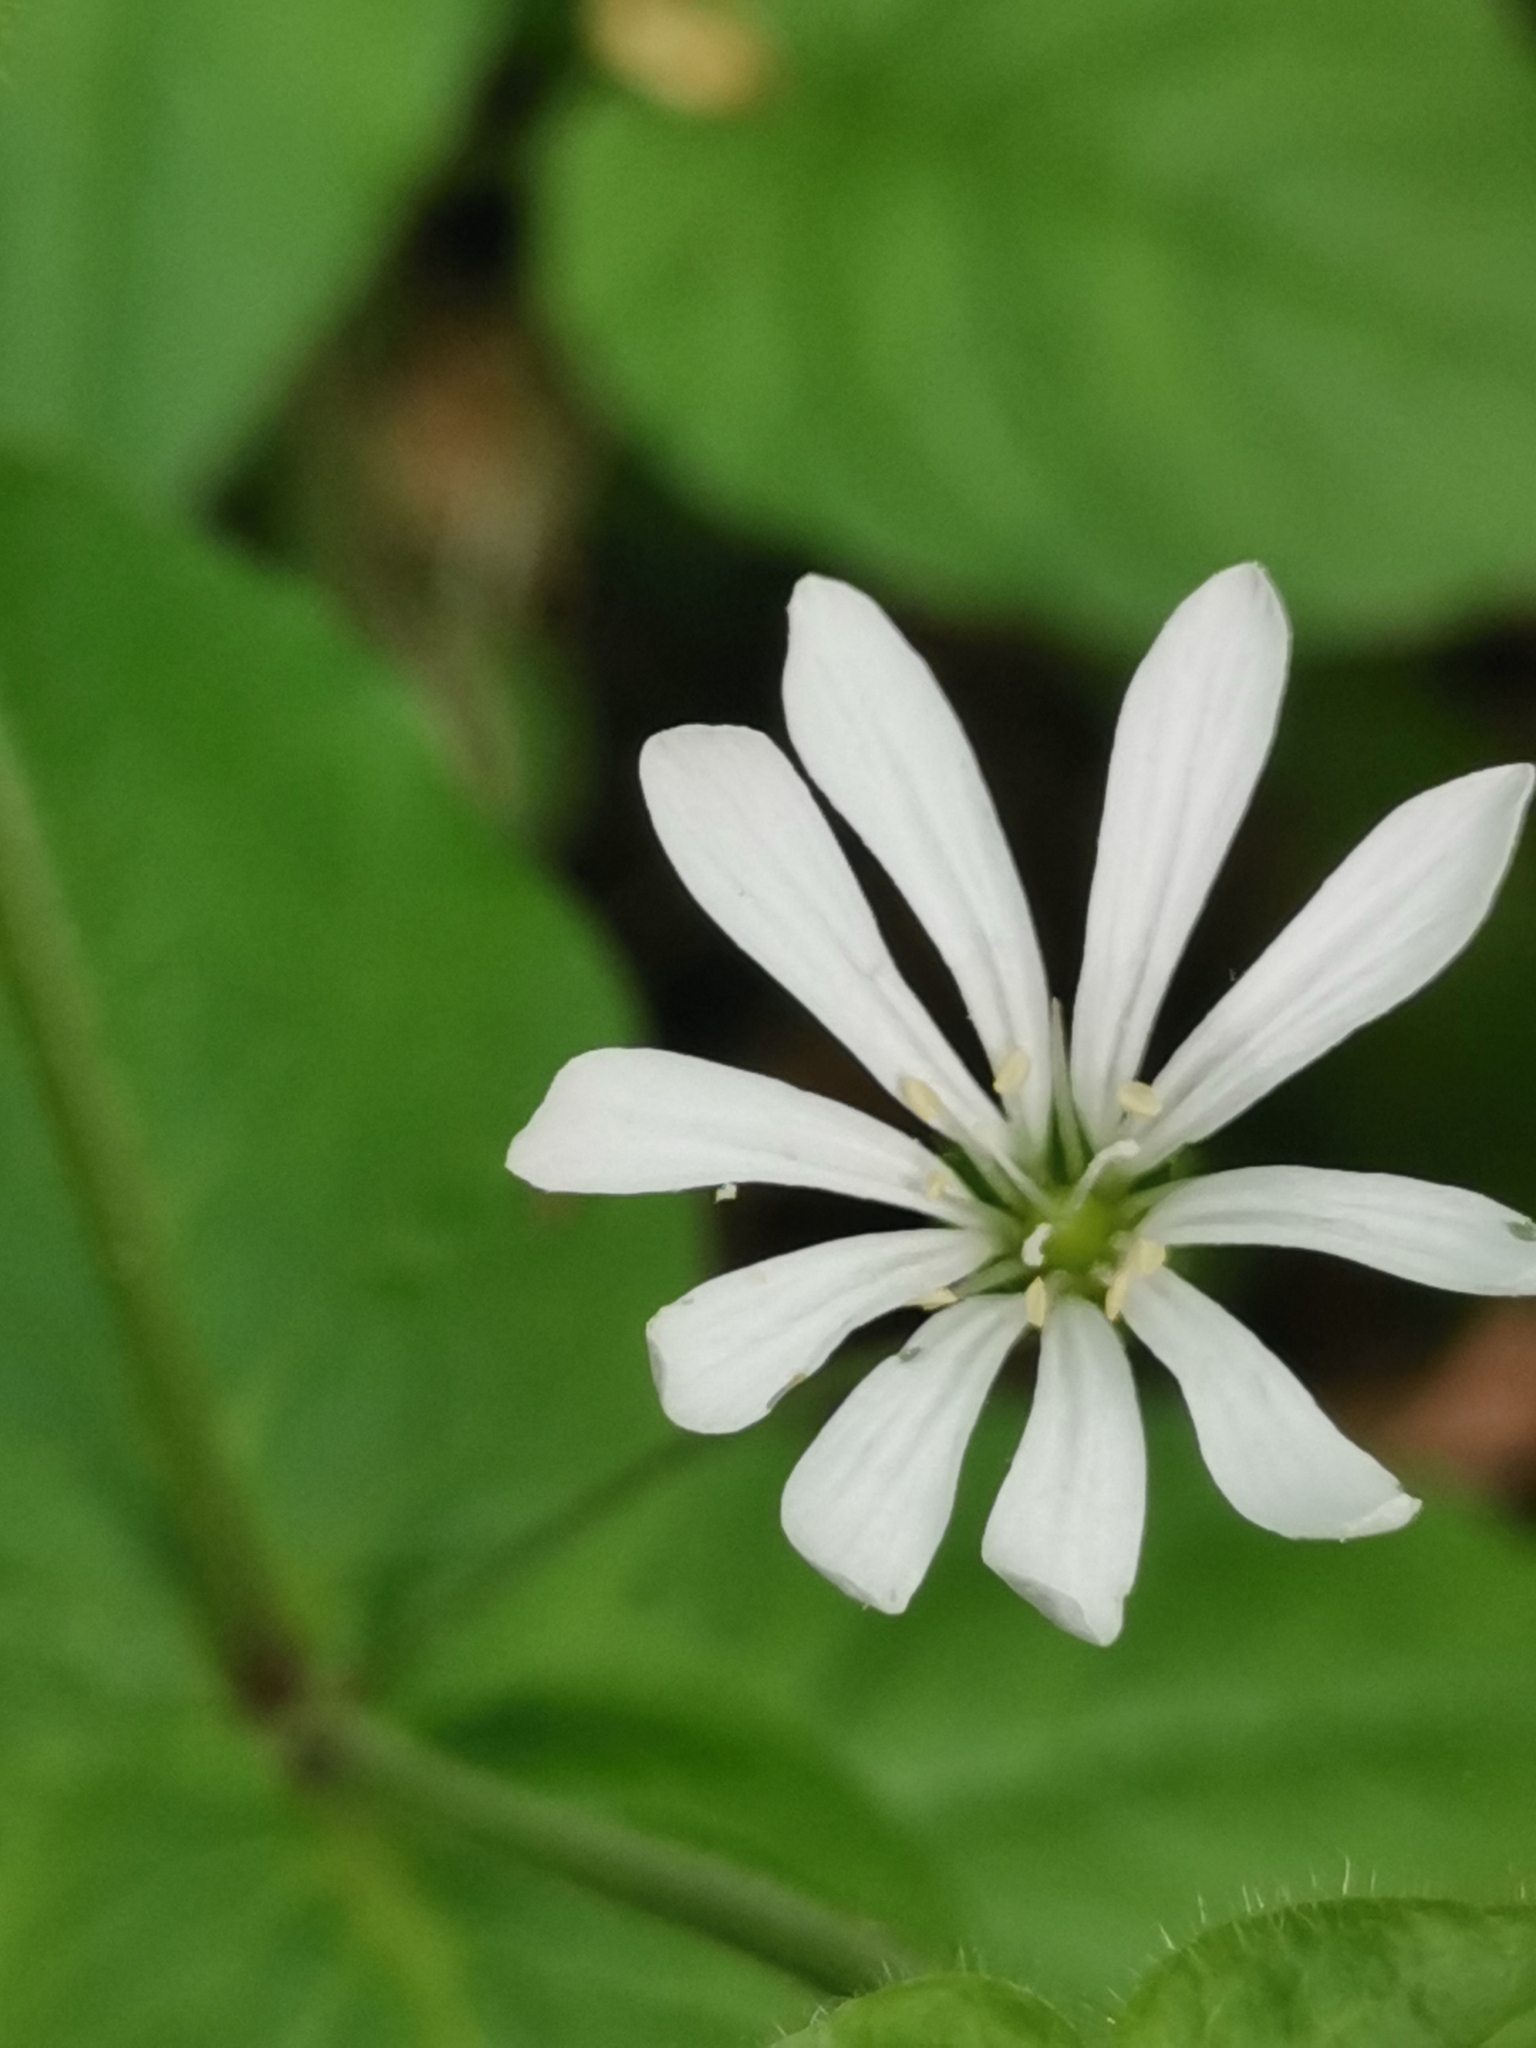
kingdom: Plantae
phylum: Tracheophyta
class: Magnoliopsida
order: Caryophyllales
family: Caryophyllaceae
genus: Stellaria
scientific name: Stellaria nemorum
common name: Wood stitchwort
